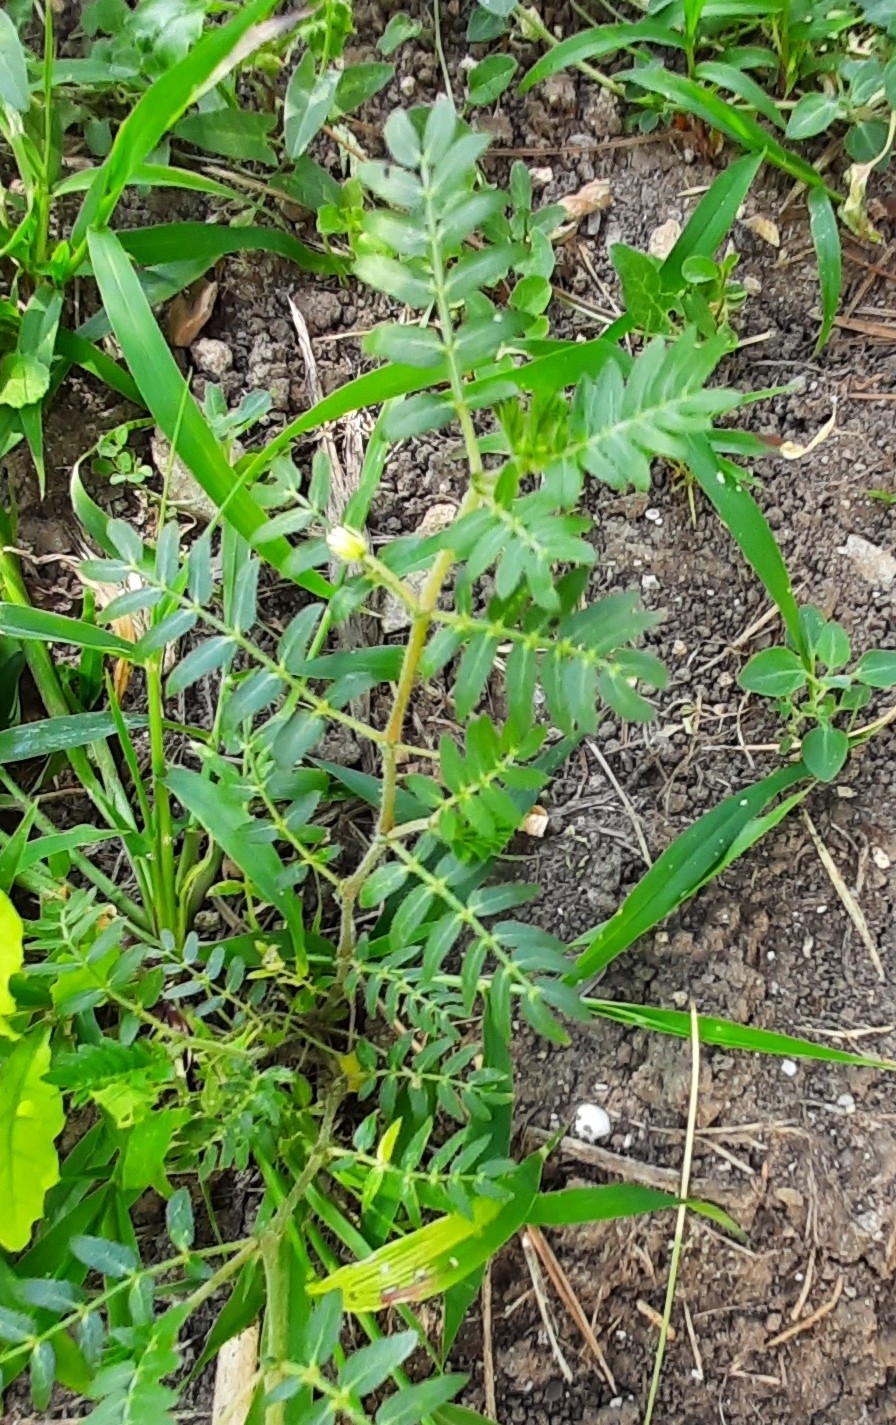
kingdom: Plantae
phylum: Tracheophyta
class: Magnoliopsida
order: Zygophyllales
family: Zygophyllaceae
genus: Tribulus
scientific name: Tribulus terrestris
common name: Puncturevine
